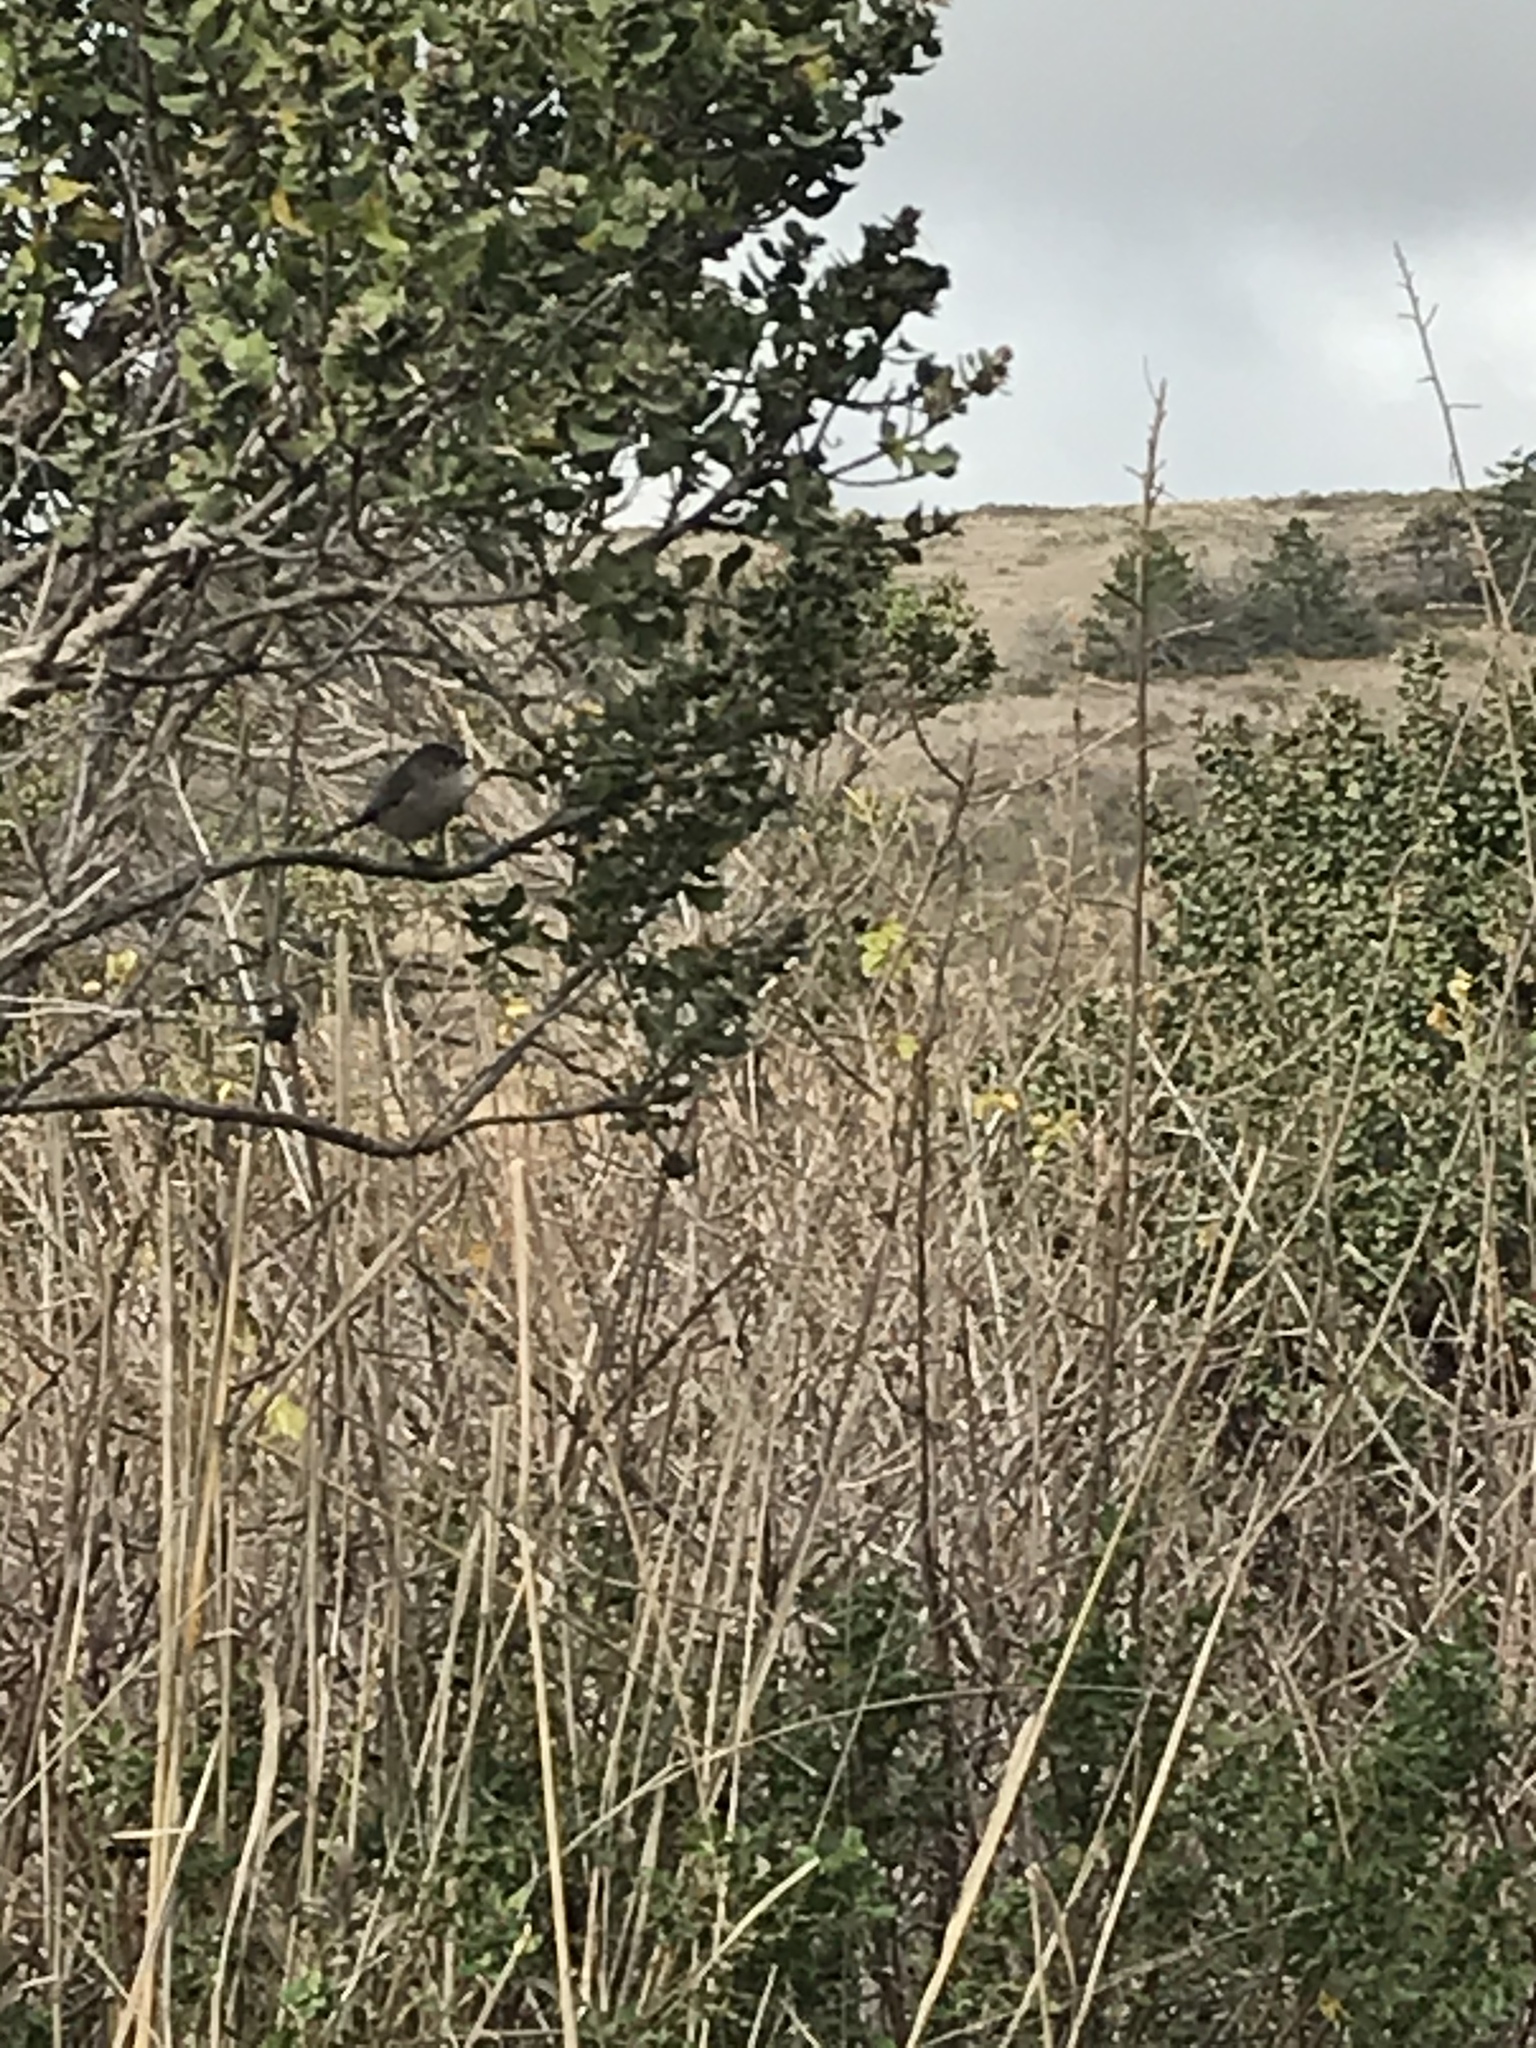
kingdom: Animalia
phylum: Chordata
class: Aves
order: Passeriformes
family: Aegithalidae
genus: Psaltriparus
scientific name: Psaltriparus minimus
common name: American bushtit
